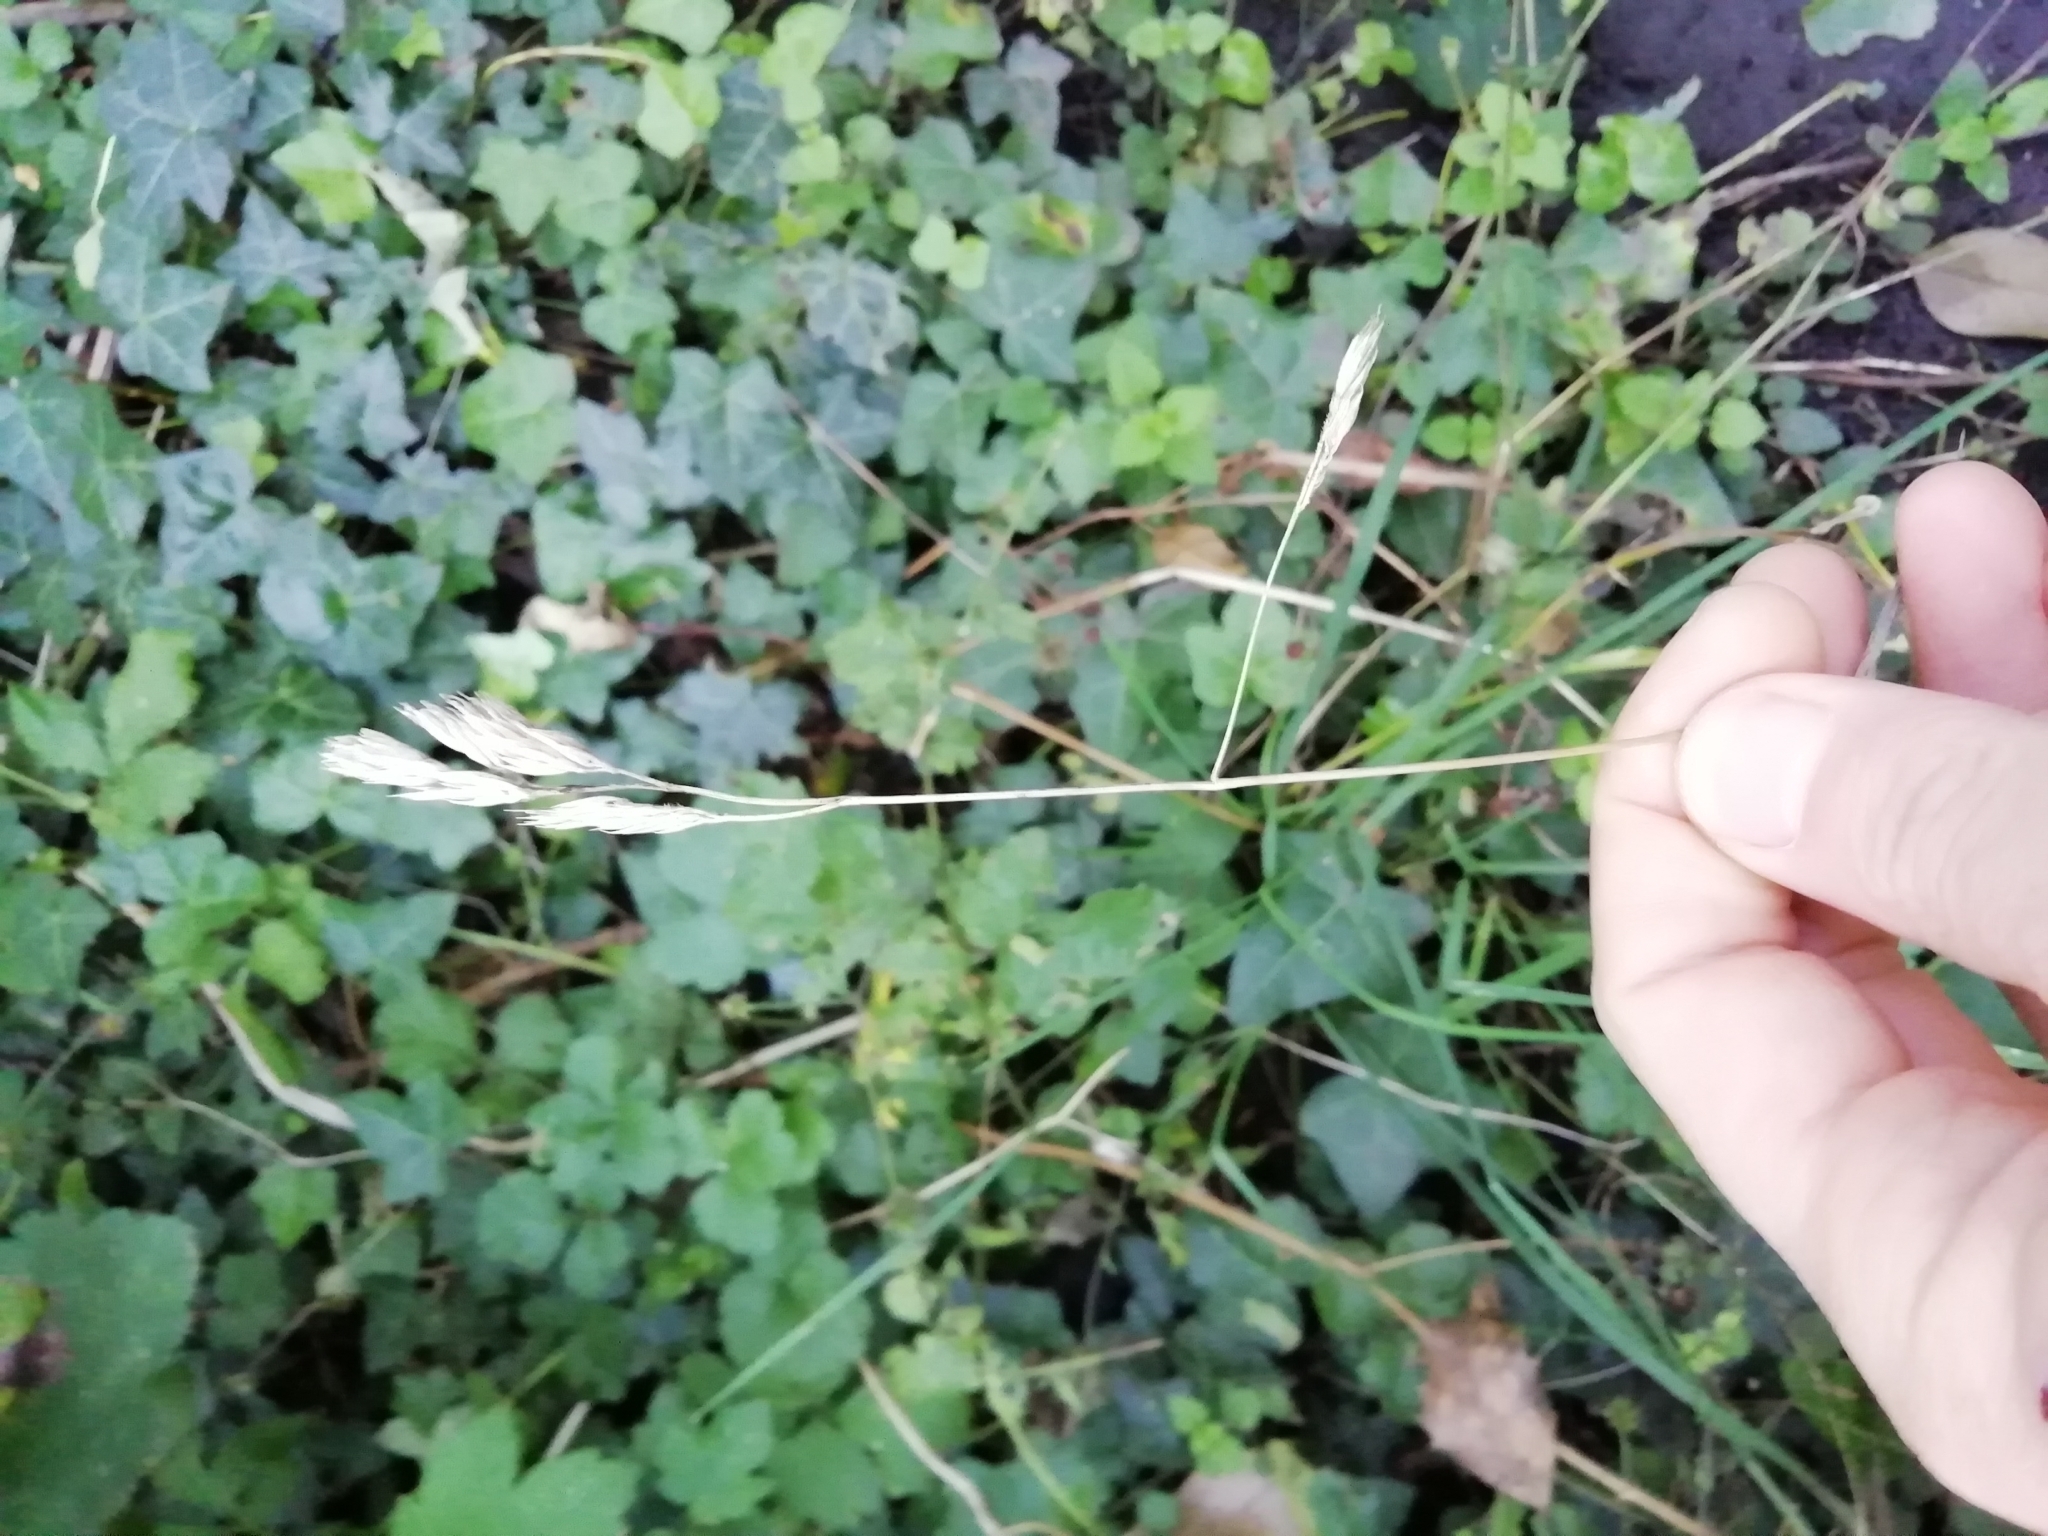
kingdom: Plantae
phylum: Tracheophyta
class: Liliopsida
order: Poales
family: Poaceae
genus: Dactylis
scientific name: Dactylis glomerata
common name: Orchardgrass
